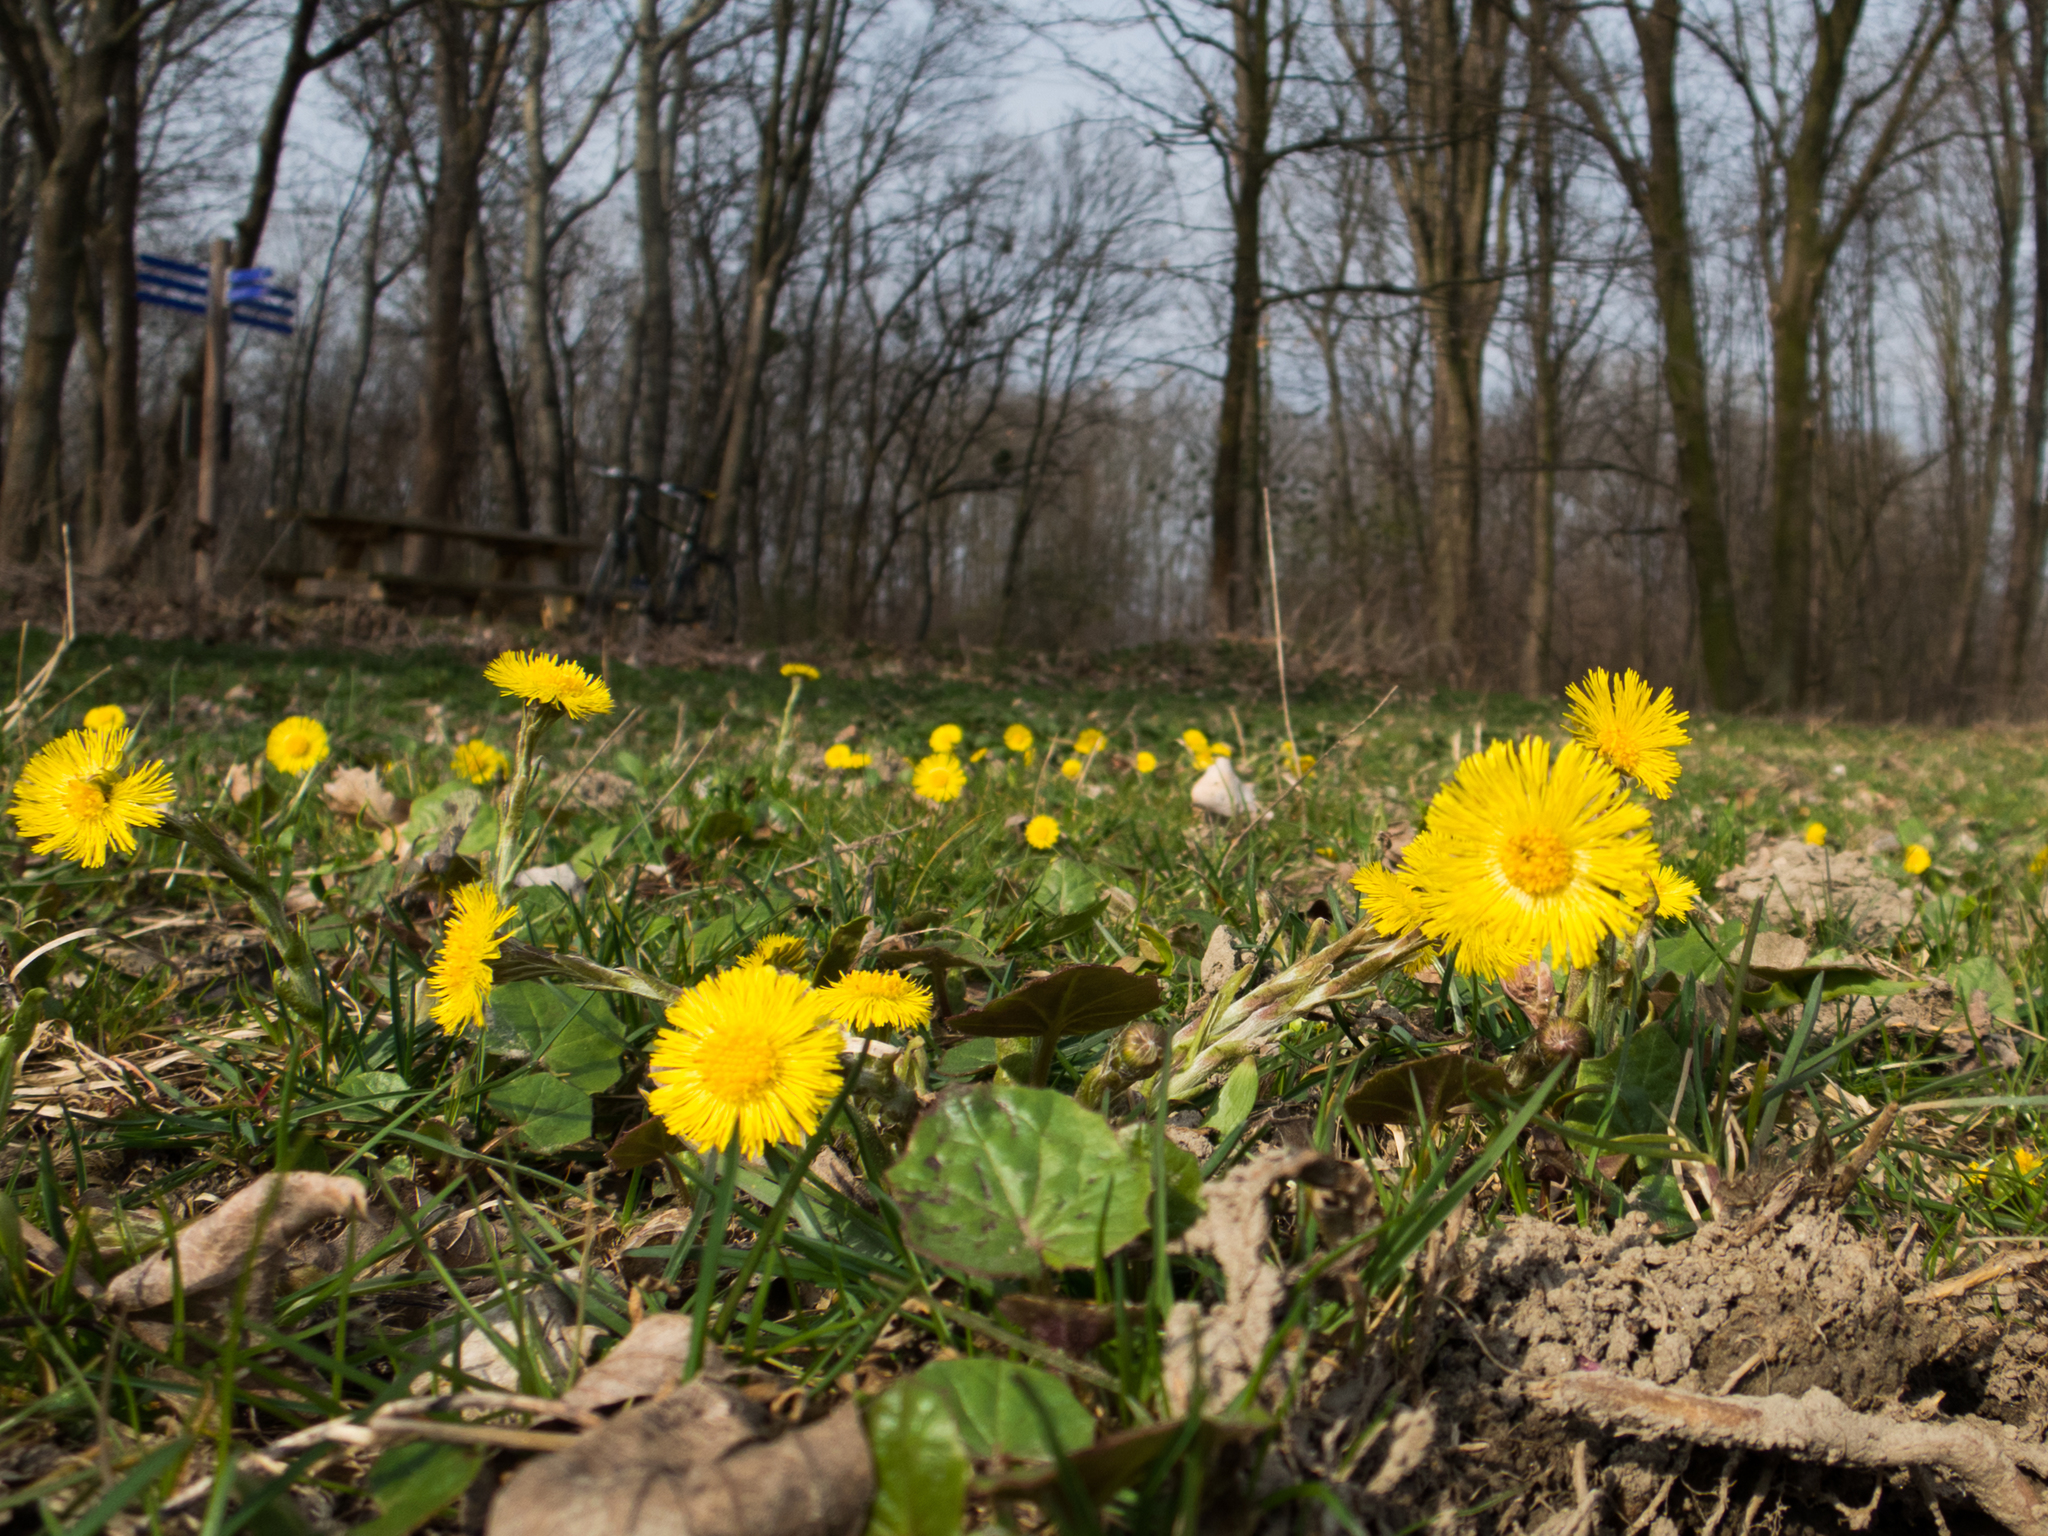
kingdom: Plantae
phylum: Tracheophyta
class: Magnoliopsida
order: Asterales
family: Asteraceae
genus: Tussilago
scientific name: Tussilago farfara
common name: Coltsfoot
